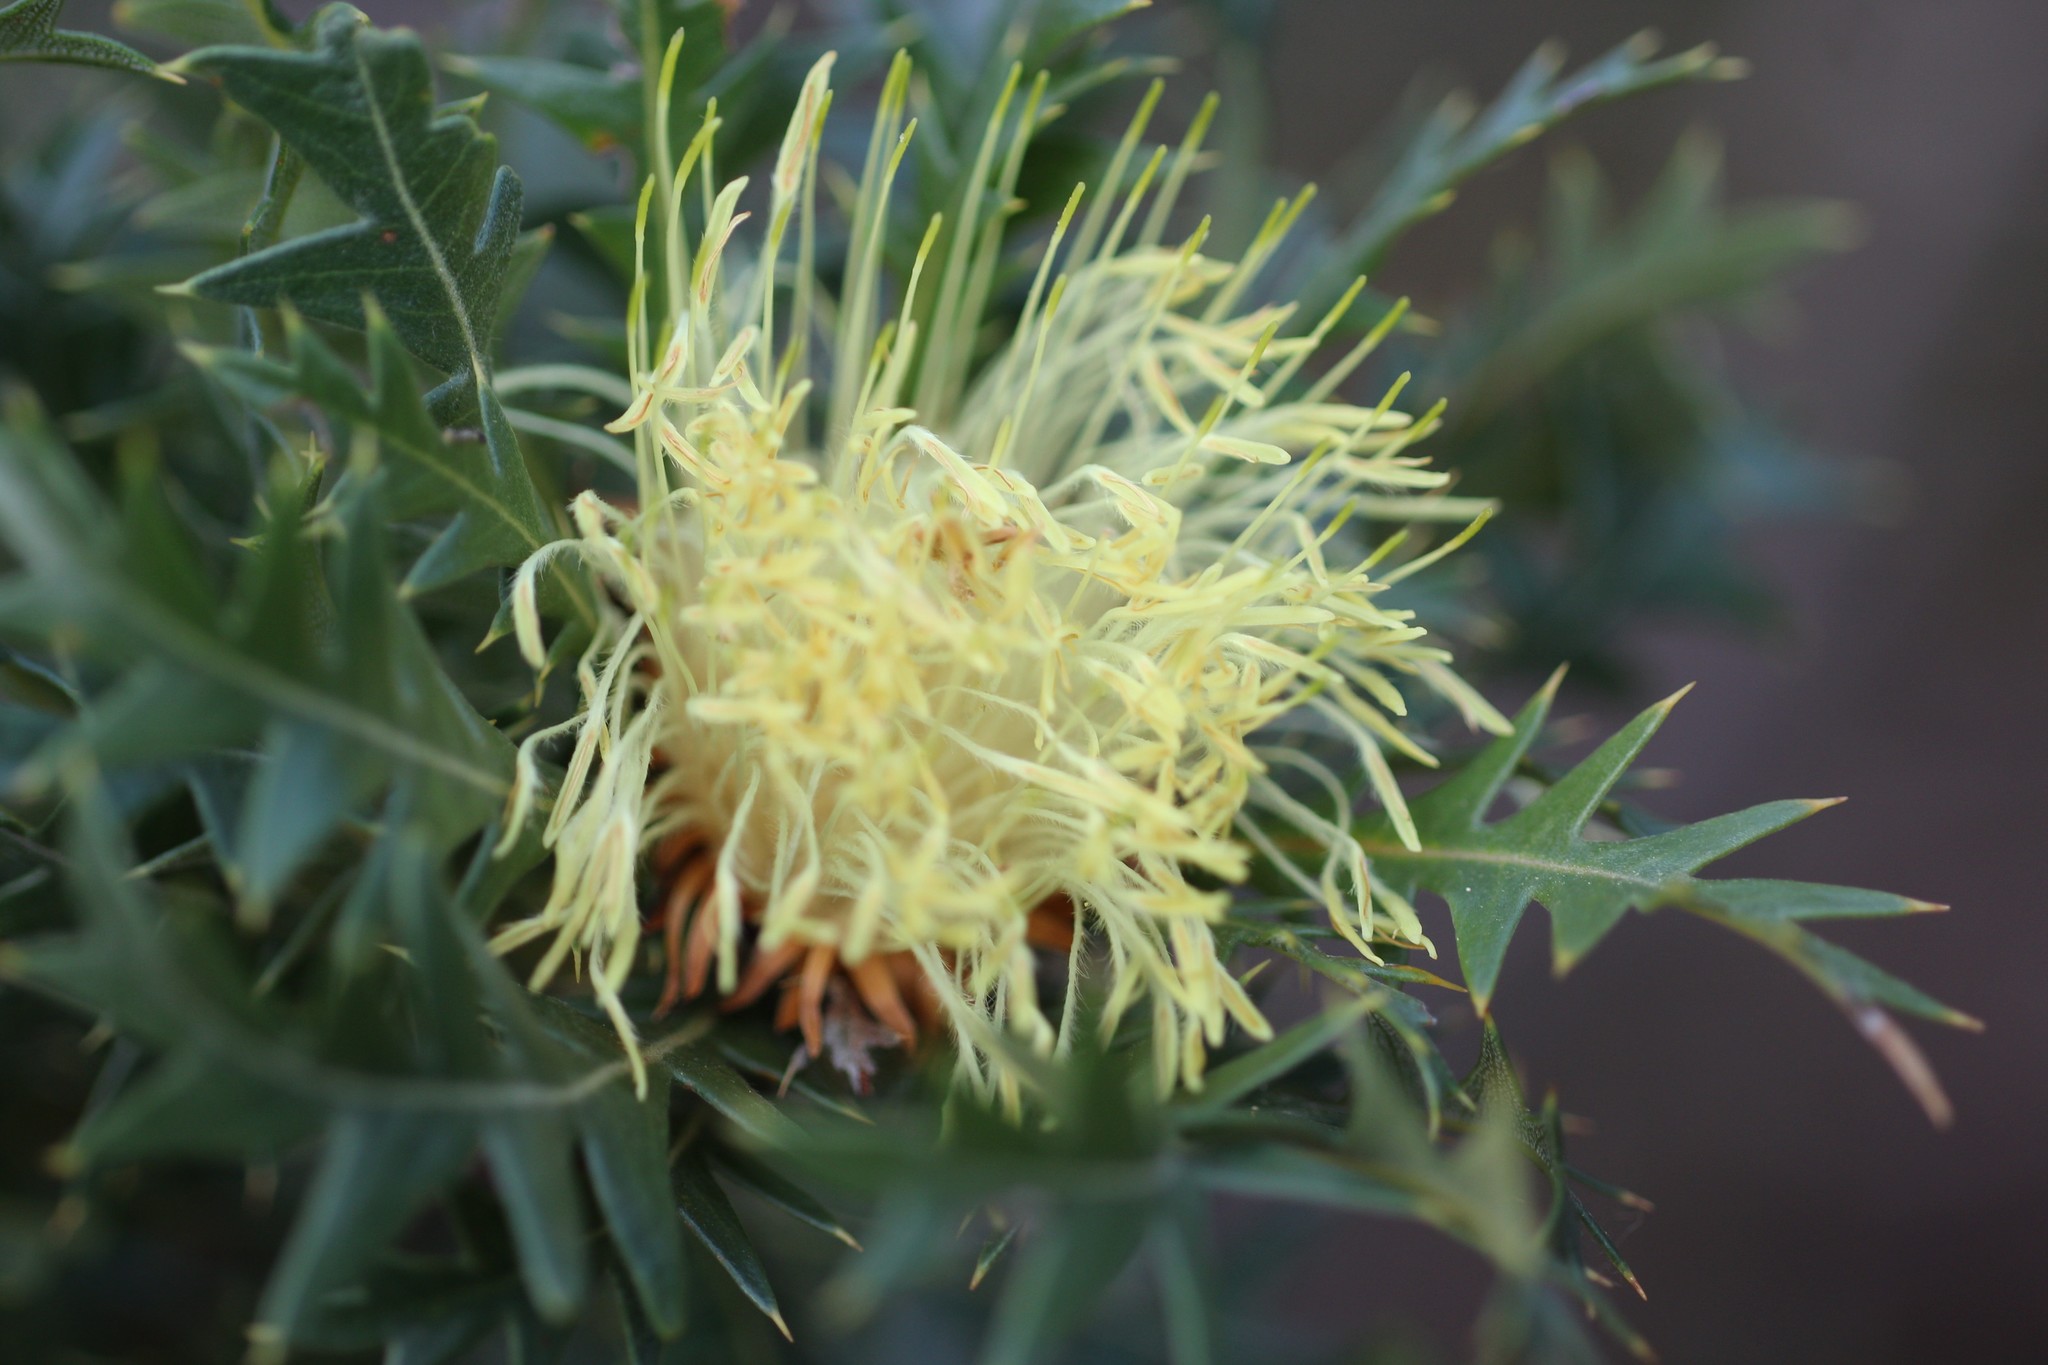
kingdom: Plantae
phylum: Tracheophyta
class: Magnoliopsida
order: Proteales
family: Proteaceae
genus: Banksia
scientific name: Banksia armata
